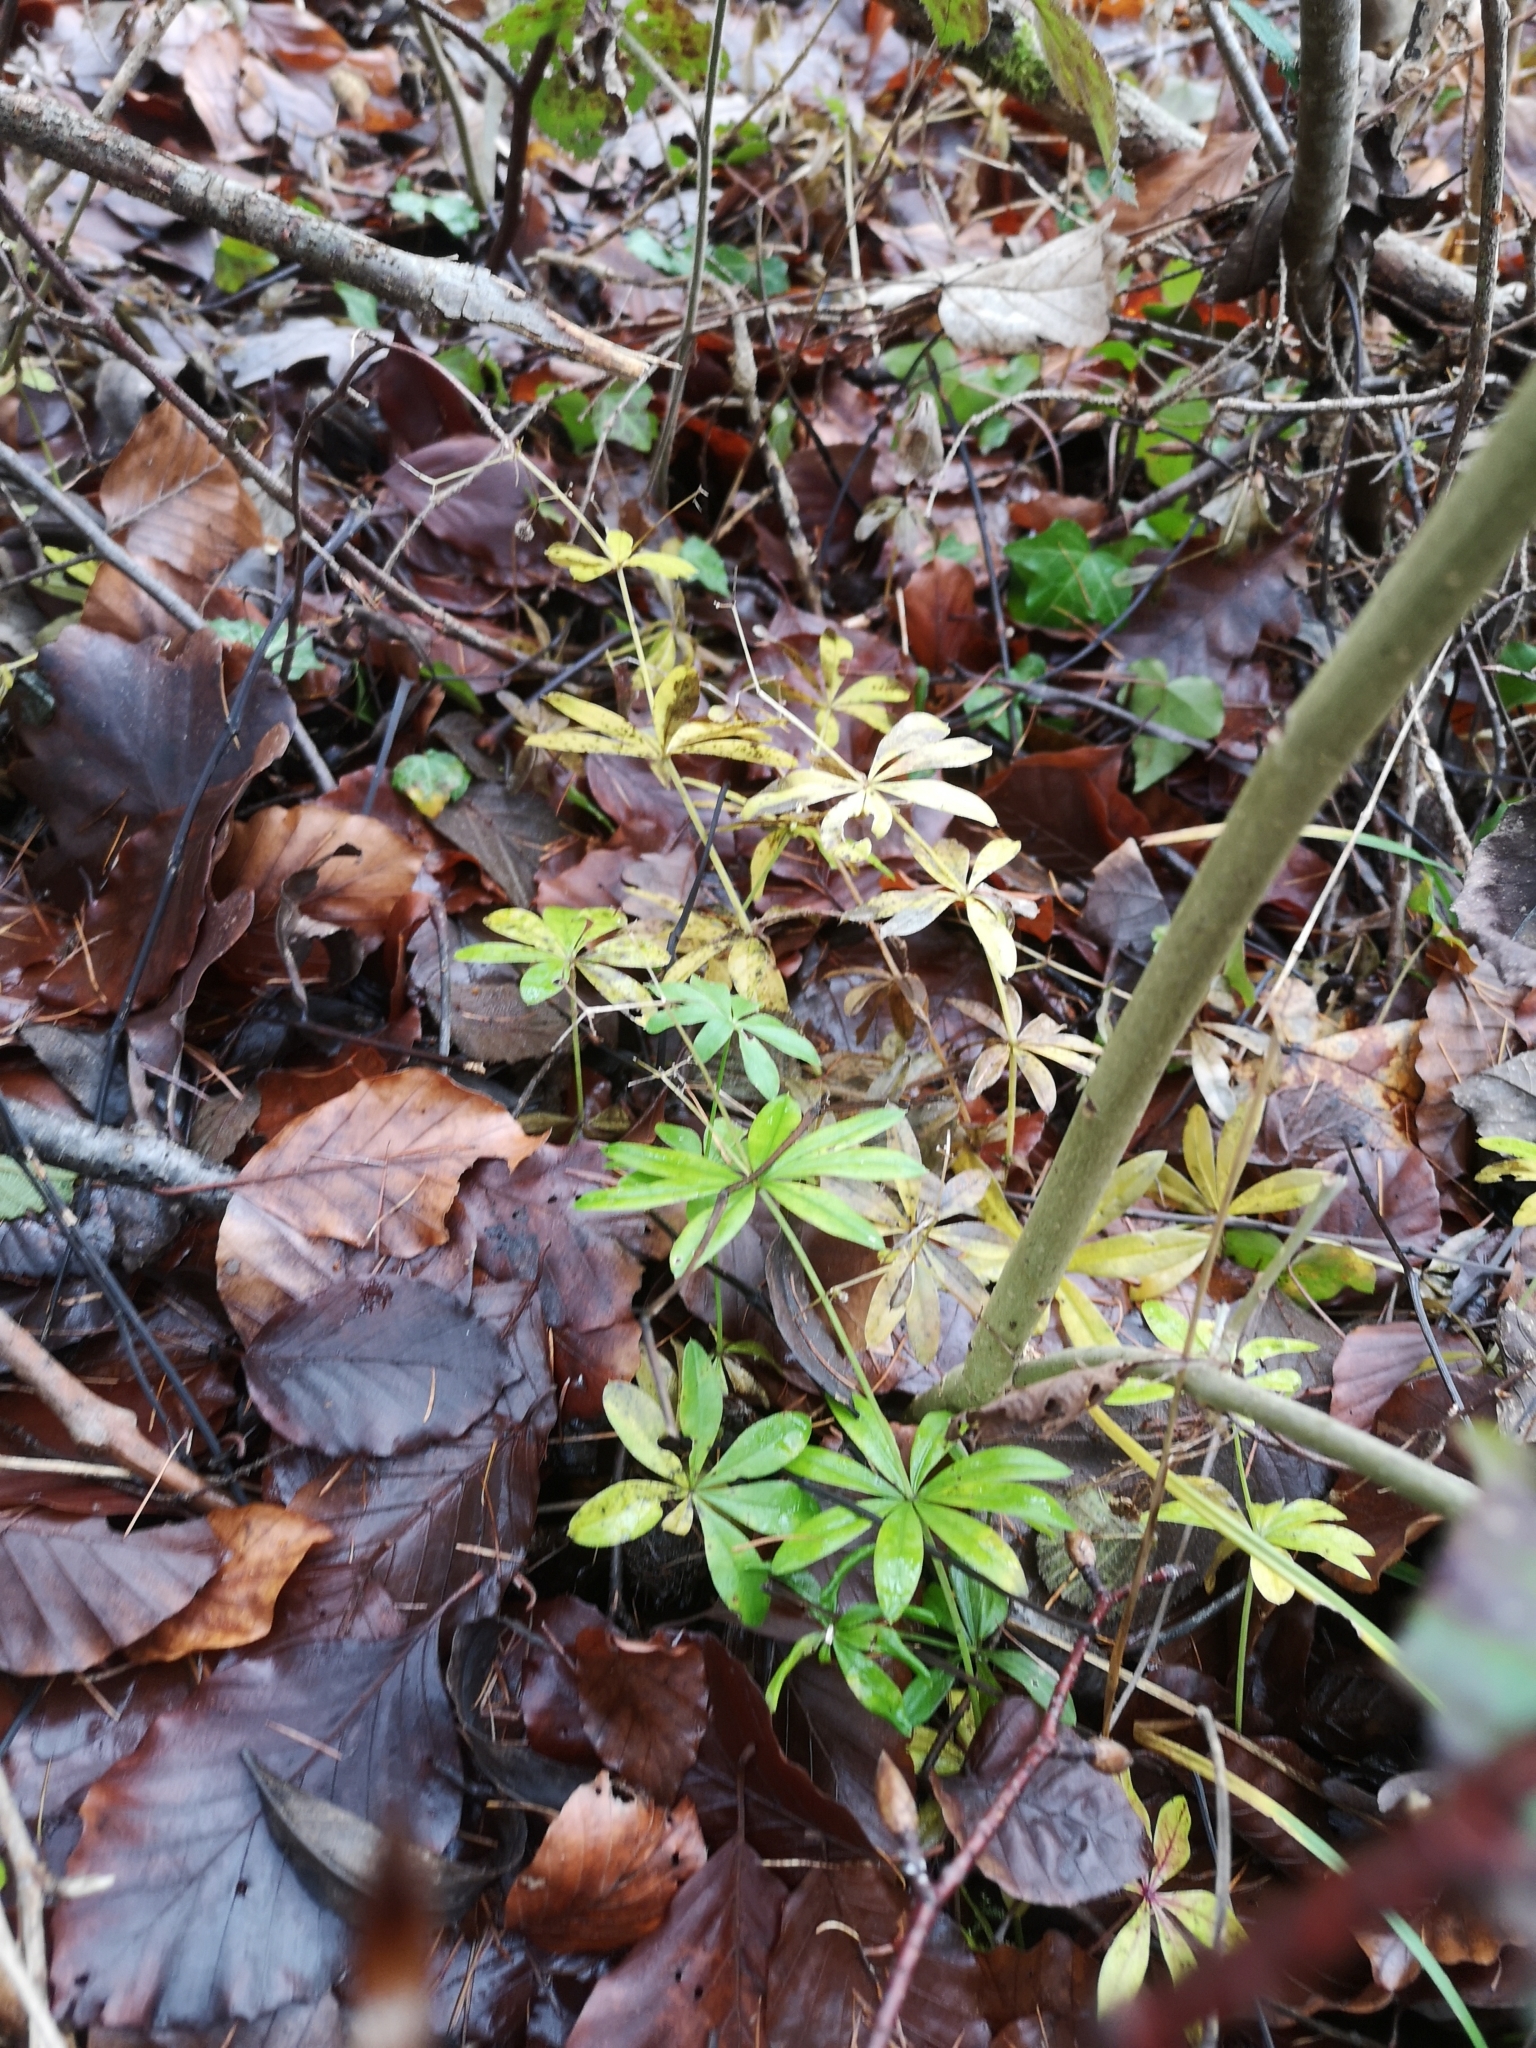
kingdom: Plantae
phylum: Tracheophyta
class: Magnoliopsida
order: Gentianales
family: Rubiaceae
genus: Galium
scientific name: Galium odoratum
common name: Sweet woodruff
